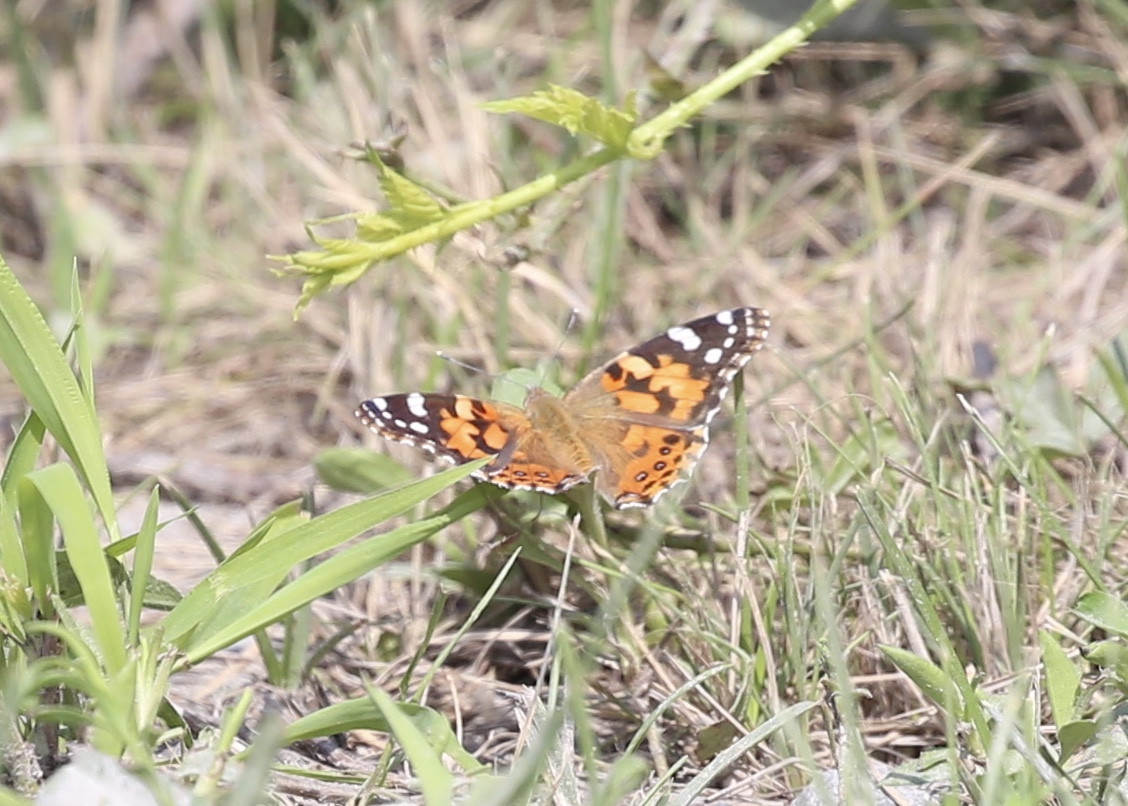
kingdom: Animalia
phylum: Arthropoda
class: Insecta
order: Lepidoptera
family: Nymphalidae
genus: Vanessa
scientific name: Vanessa cardui
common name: Painted lady
